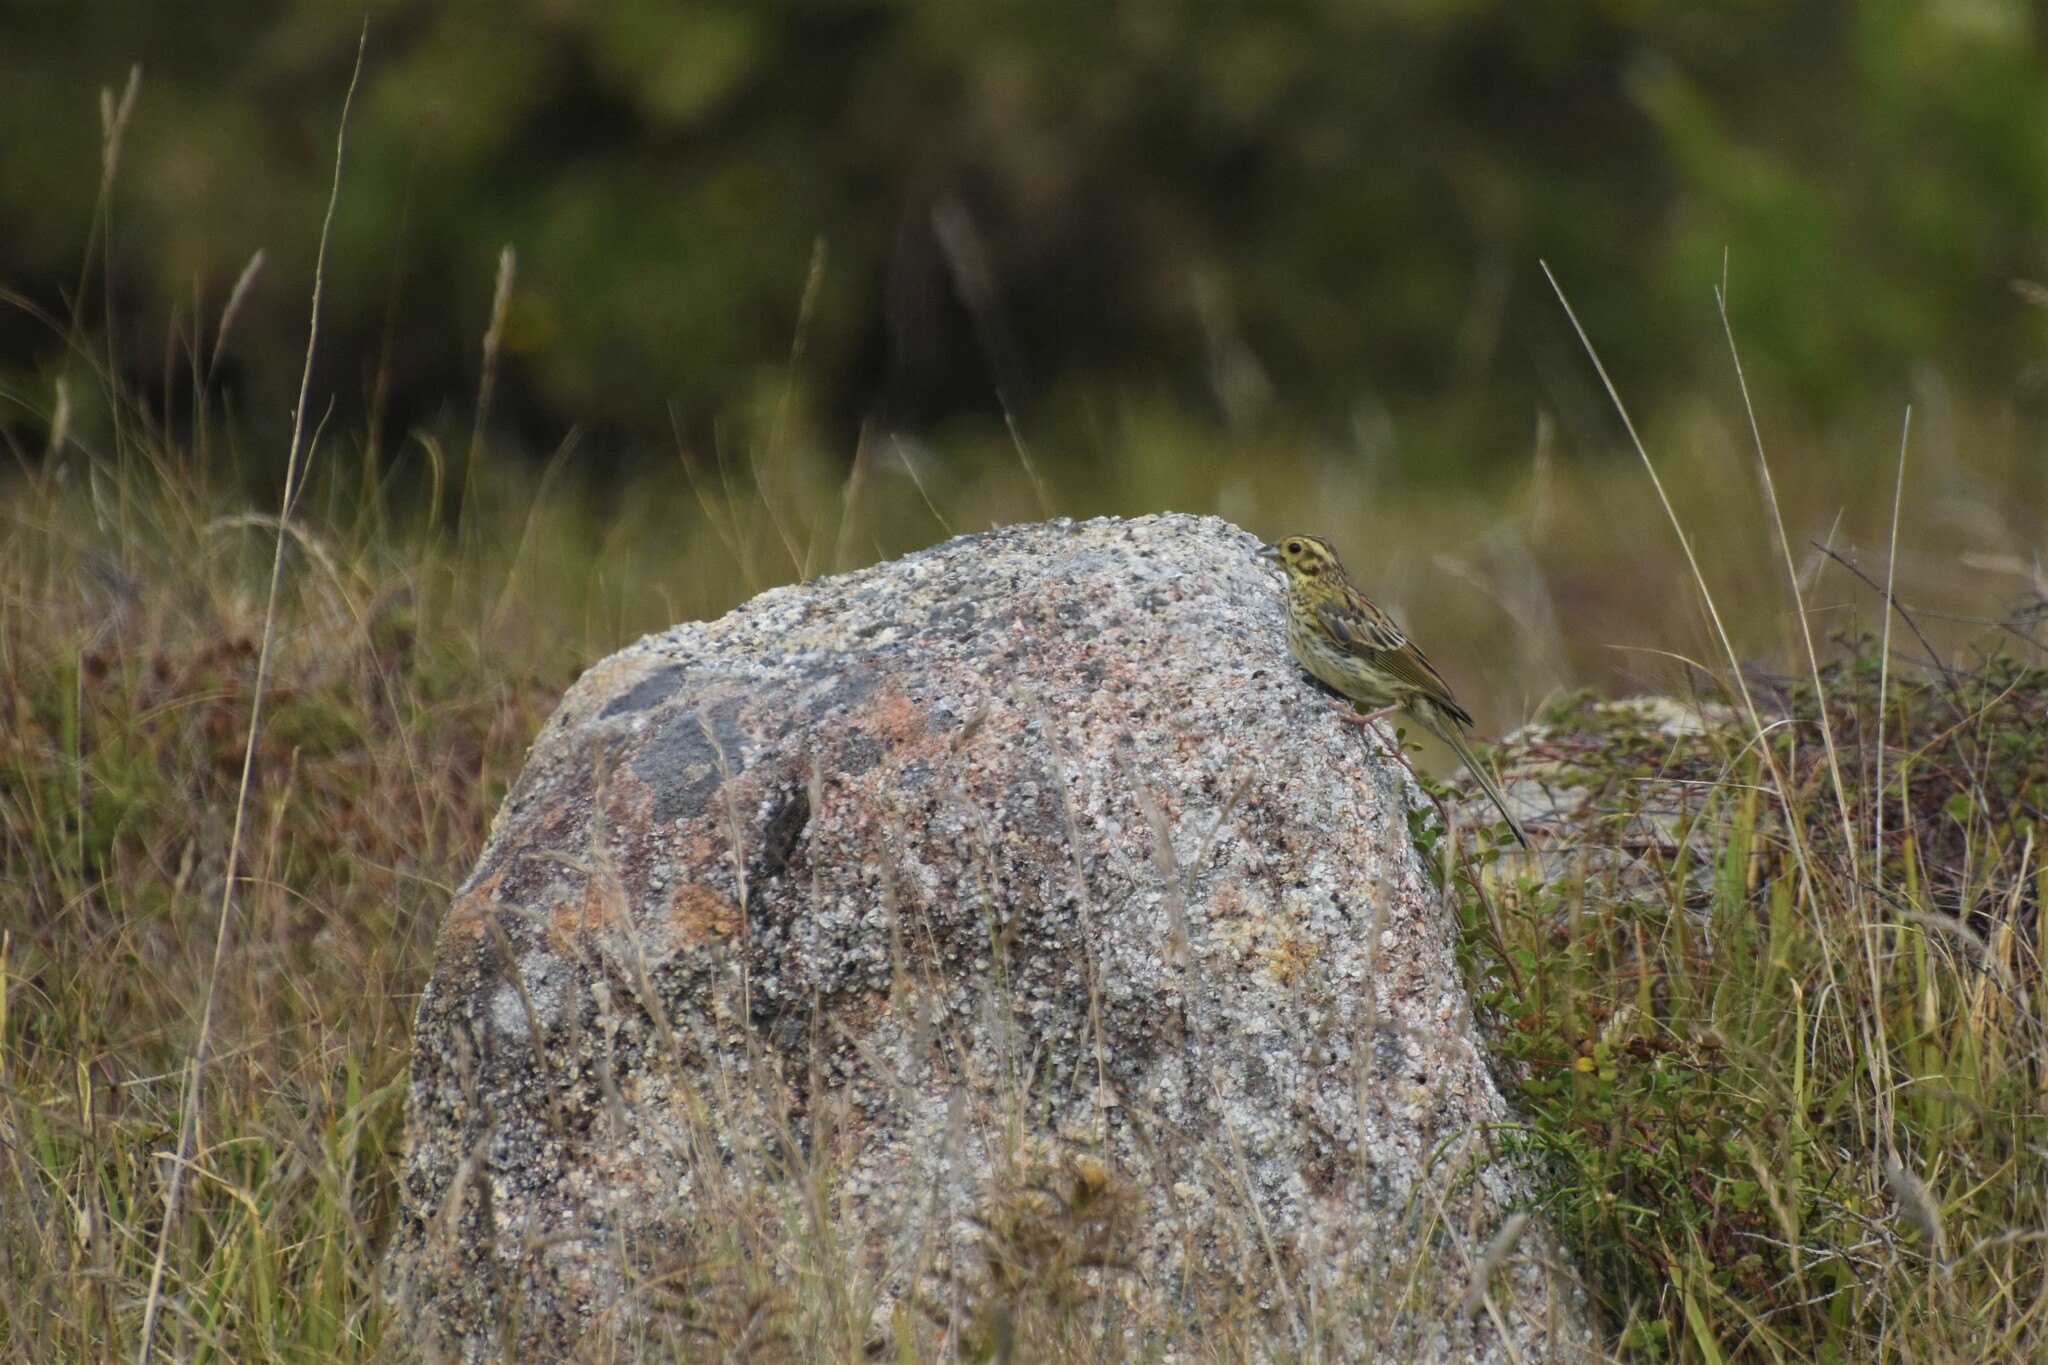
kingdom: Animalia
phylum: Chordata
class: Aves
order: Passeriformes
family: Emberizidae
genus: Emberiza
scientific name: Emberiza cirlus
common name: Cirl bunting
